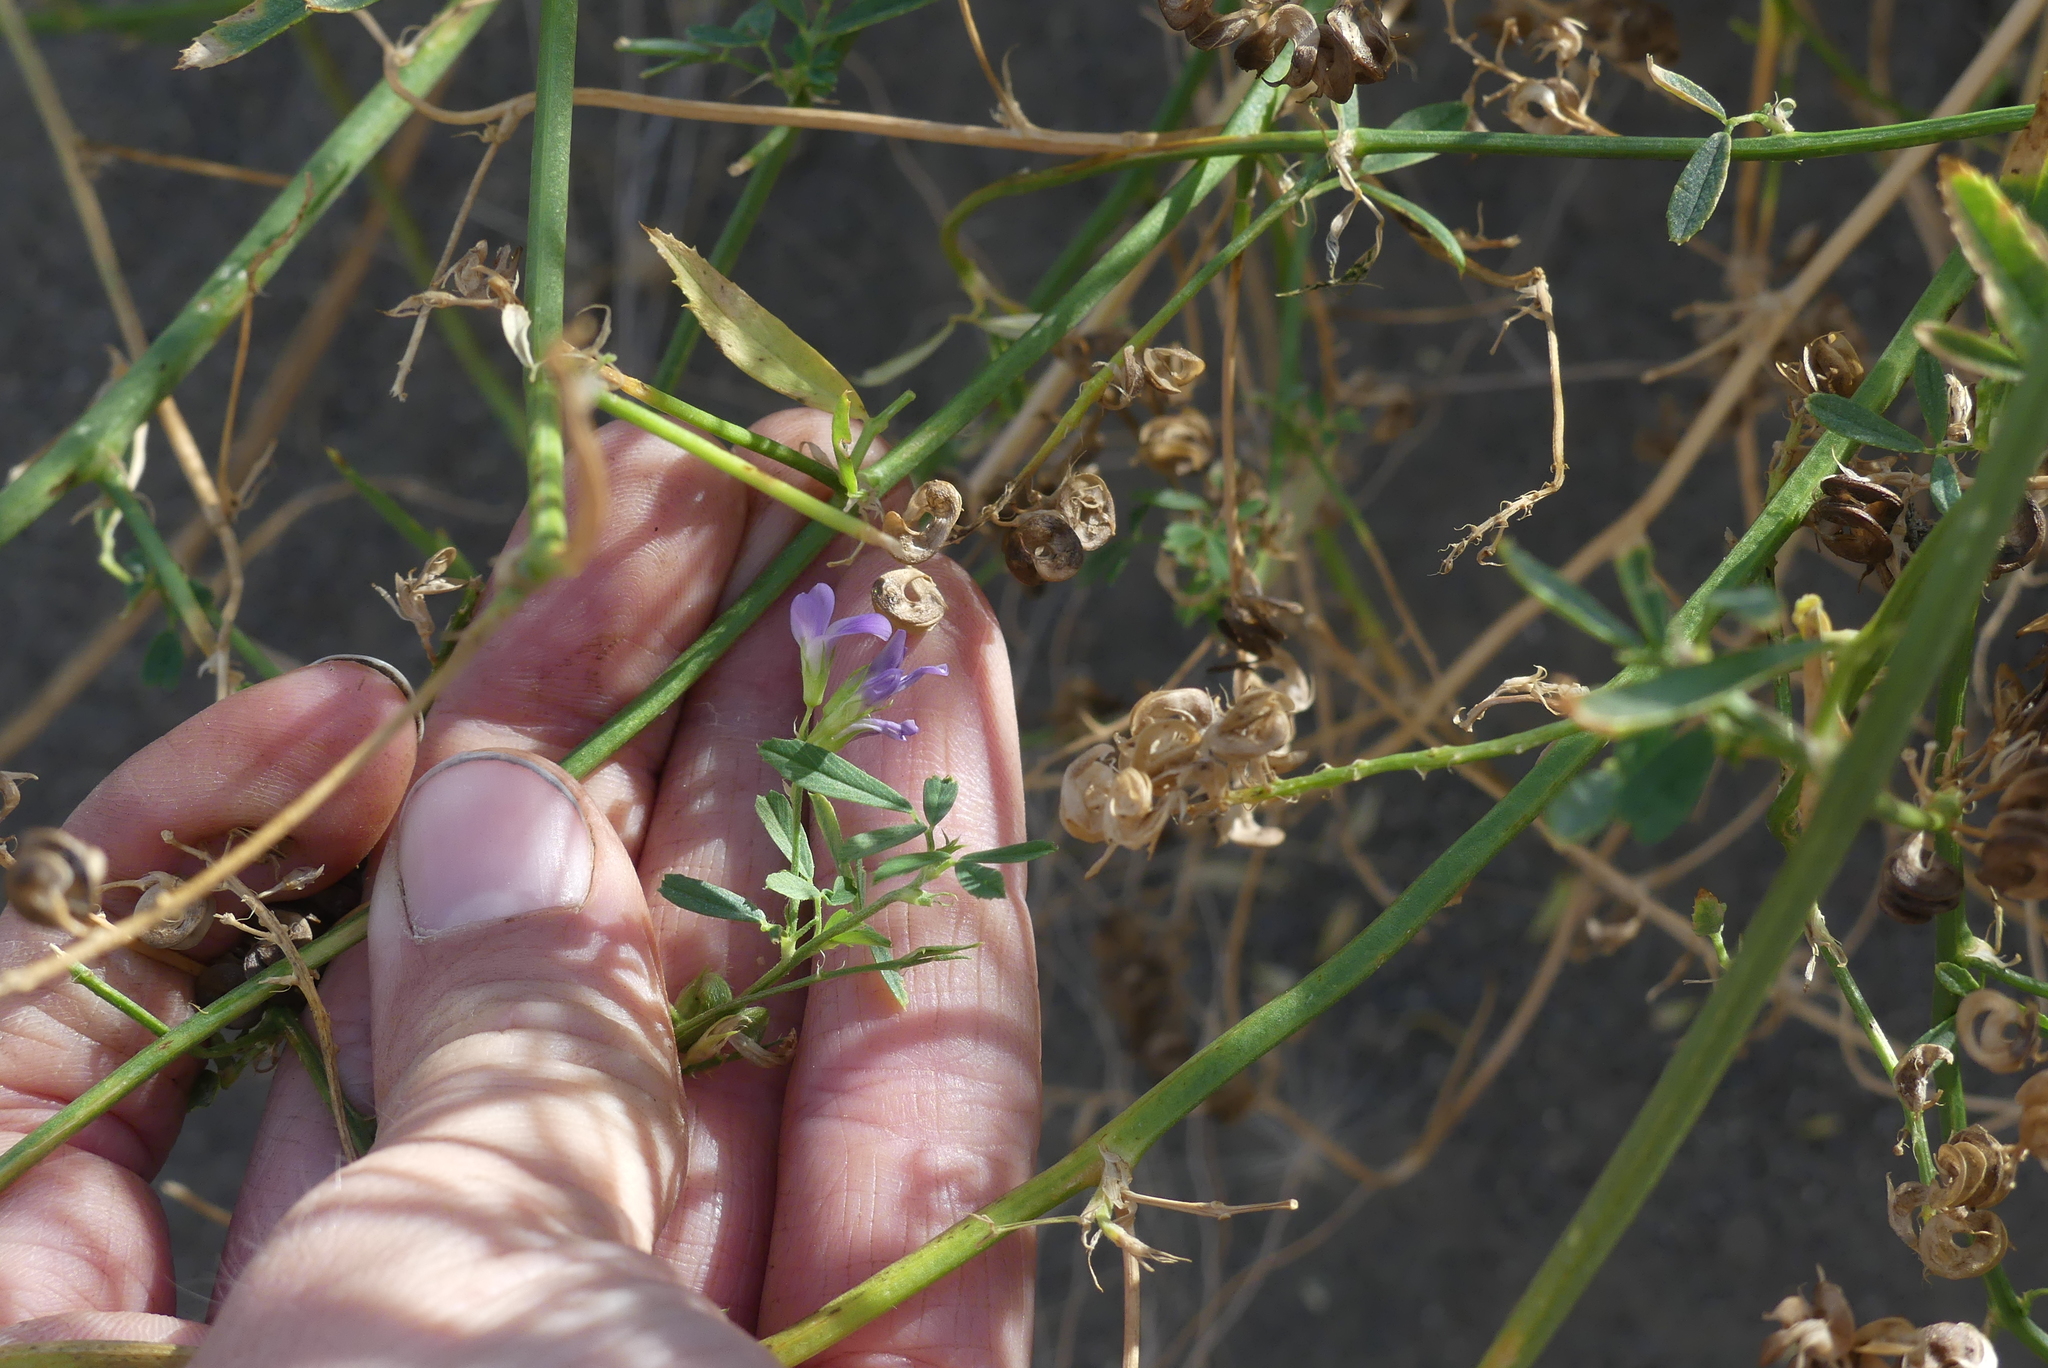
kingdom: Plantae
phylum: Tracheophyta
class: Magnoliopsida
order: Fabales
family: Fabaceae
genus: Medicago
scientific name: Medicago sativa
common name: Alfalfa
